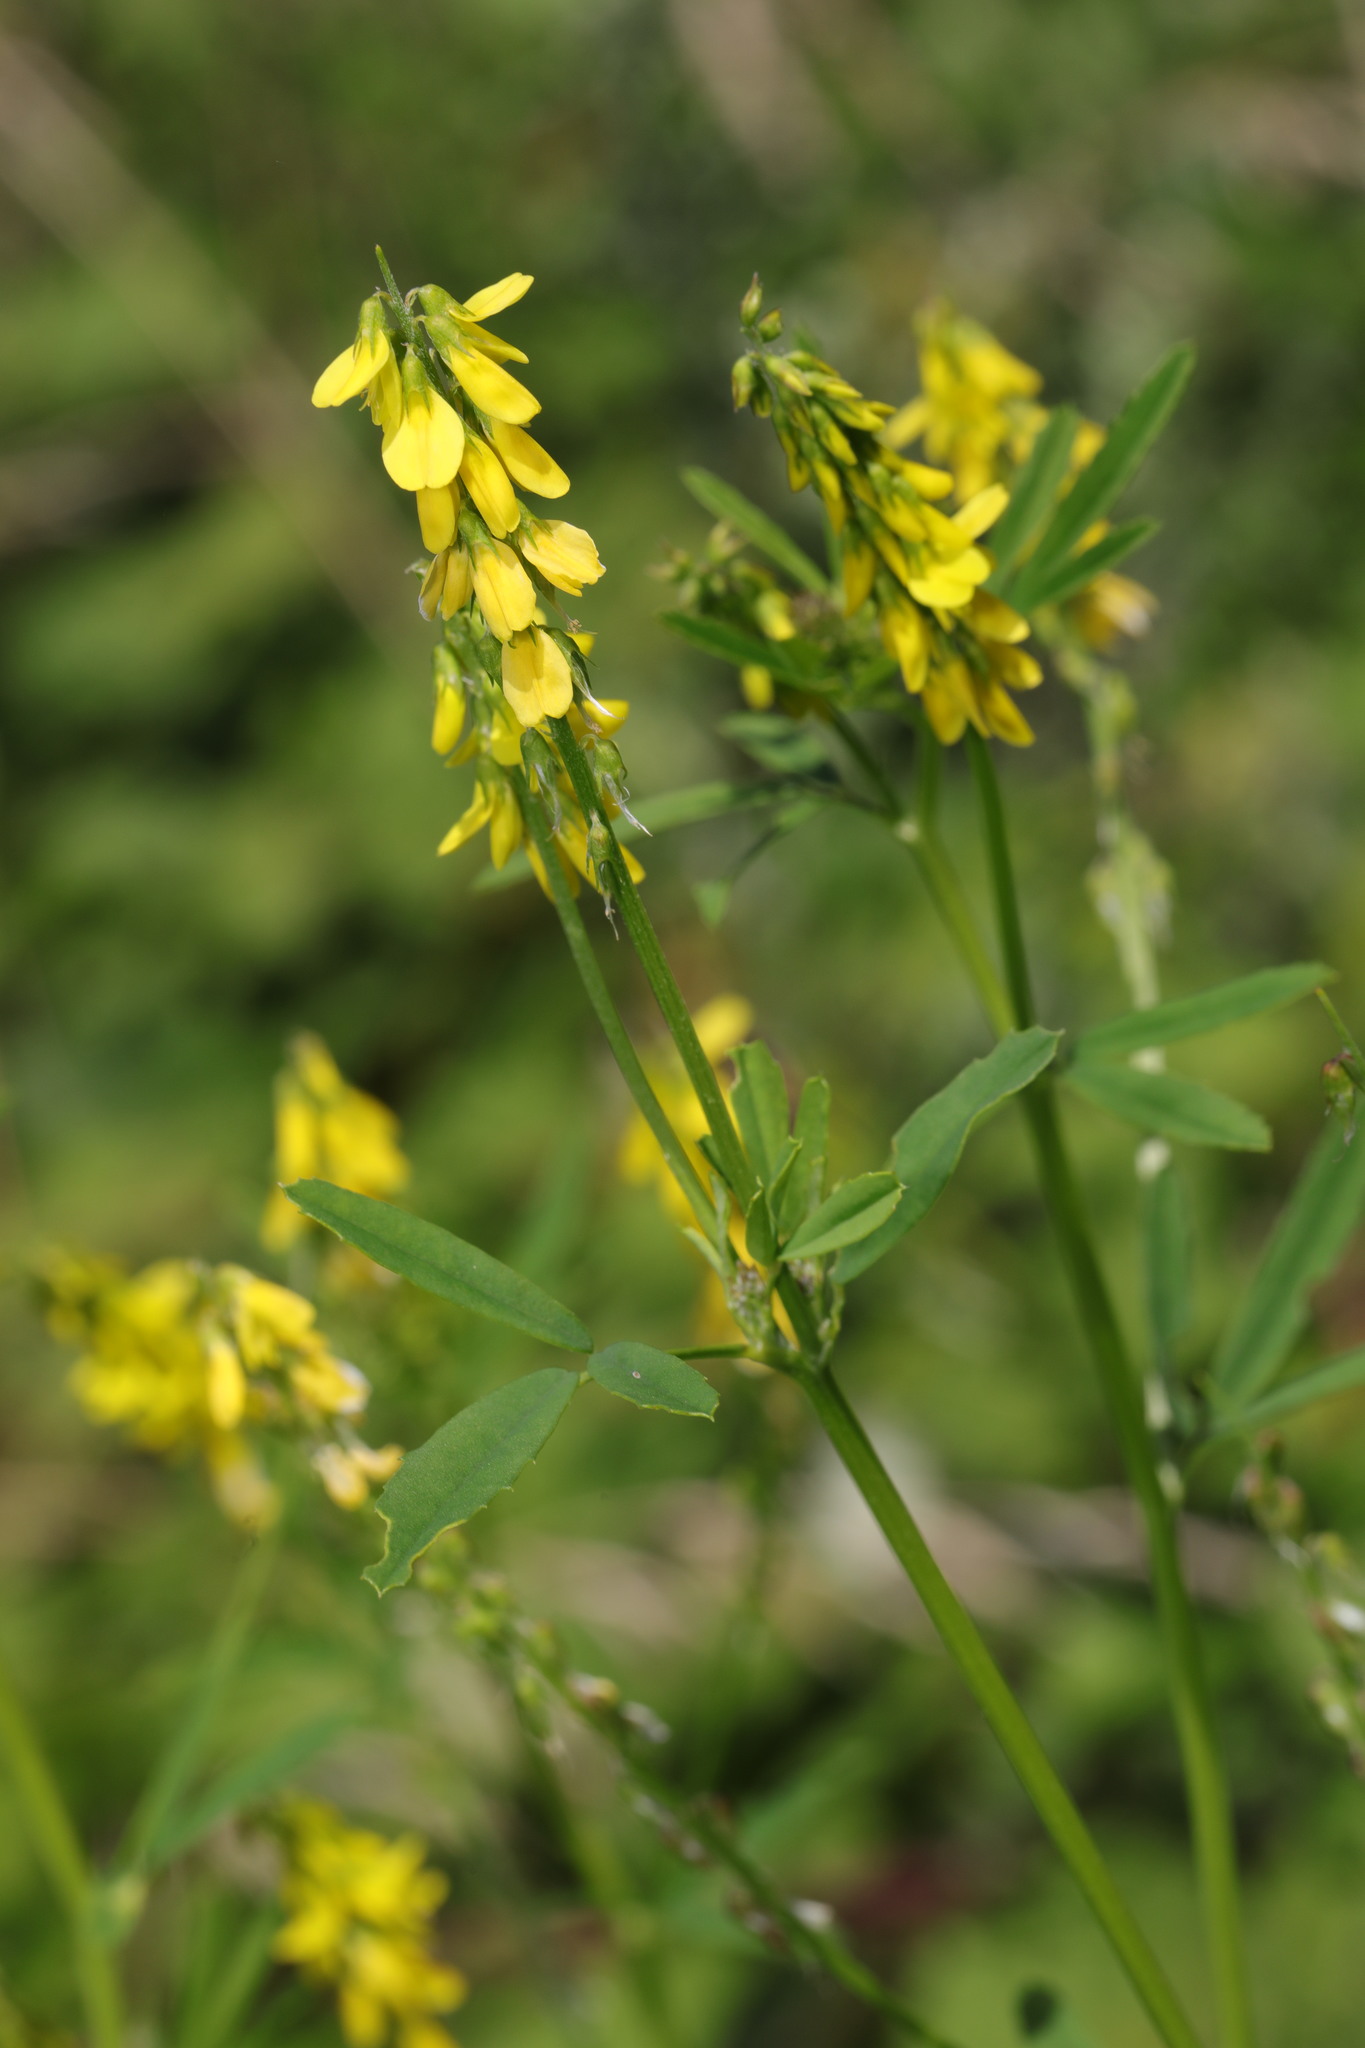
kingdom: Plantae
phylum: Tracheophyta
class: Magnoliopsida
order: Fabales
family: Fabaceae
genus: Melilotus
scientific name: Melilotus officinalis
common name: Sweetclover
